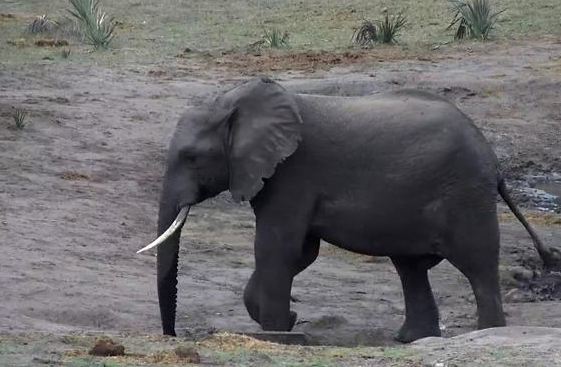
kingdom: Animalia
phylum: Chordata
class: Mammalia
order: Proboscidea
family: Elephantidae
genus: Loxodonta
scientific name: Loxodonta africana
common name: African elephant
